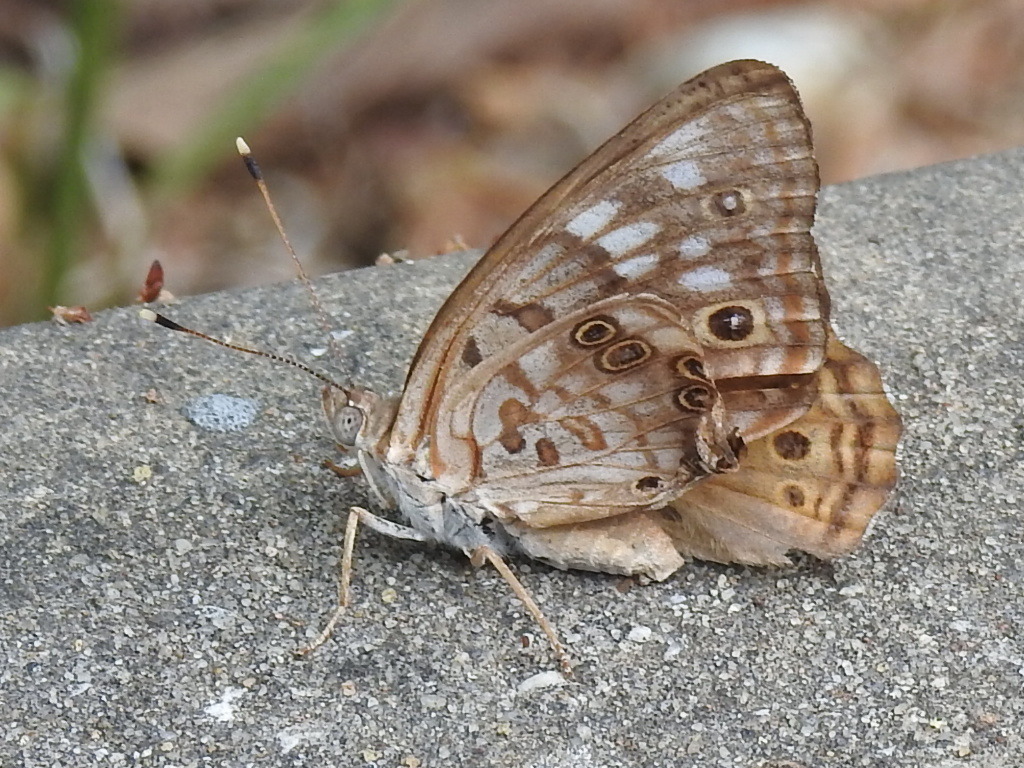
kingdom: Animalia
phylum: Arthropoda
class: Insecta
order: Lepidoptera
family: Nymphalidae
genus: Asterocampa
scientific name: Asterocampa celtis
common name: Hackberry emperor
